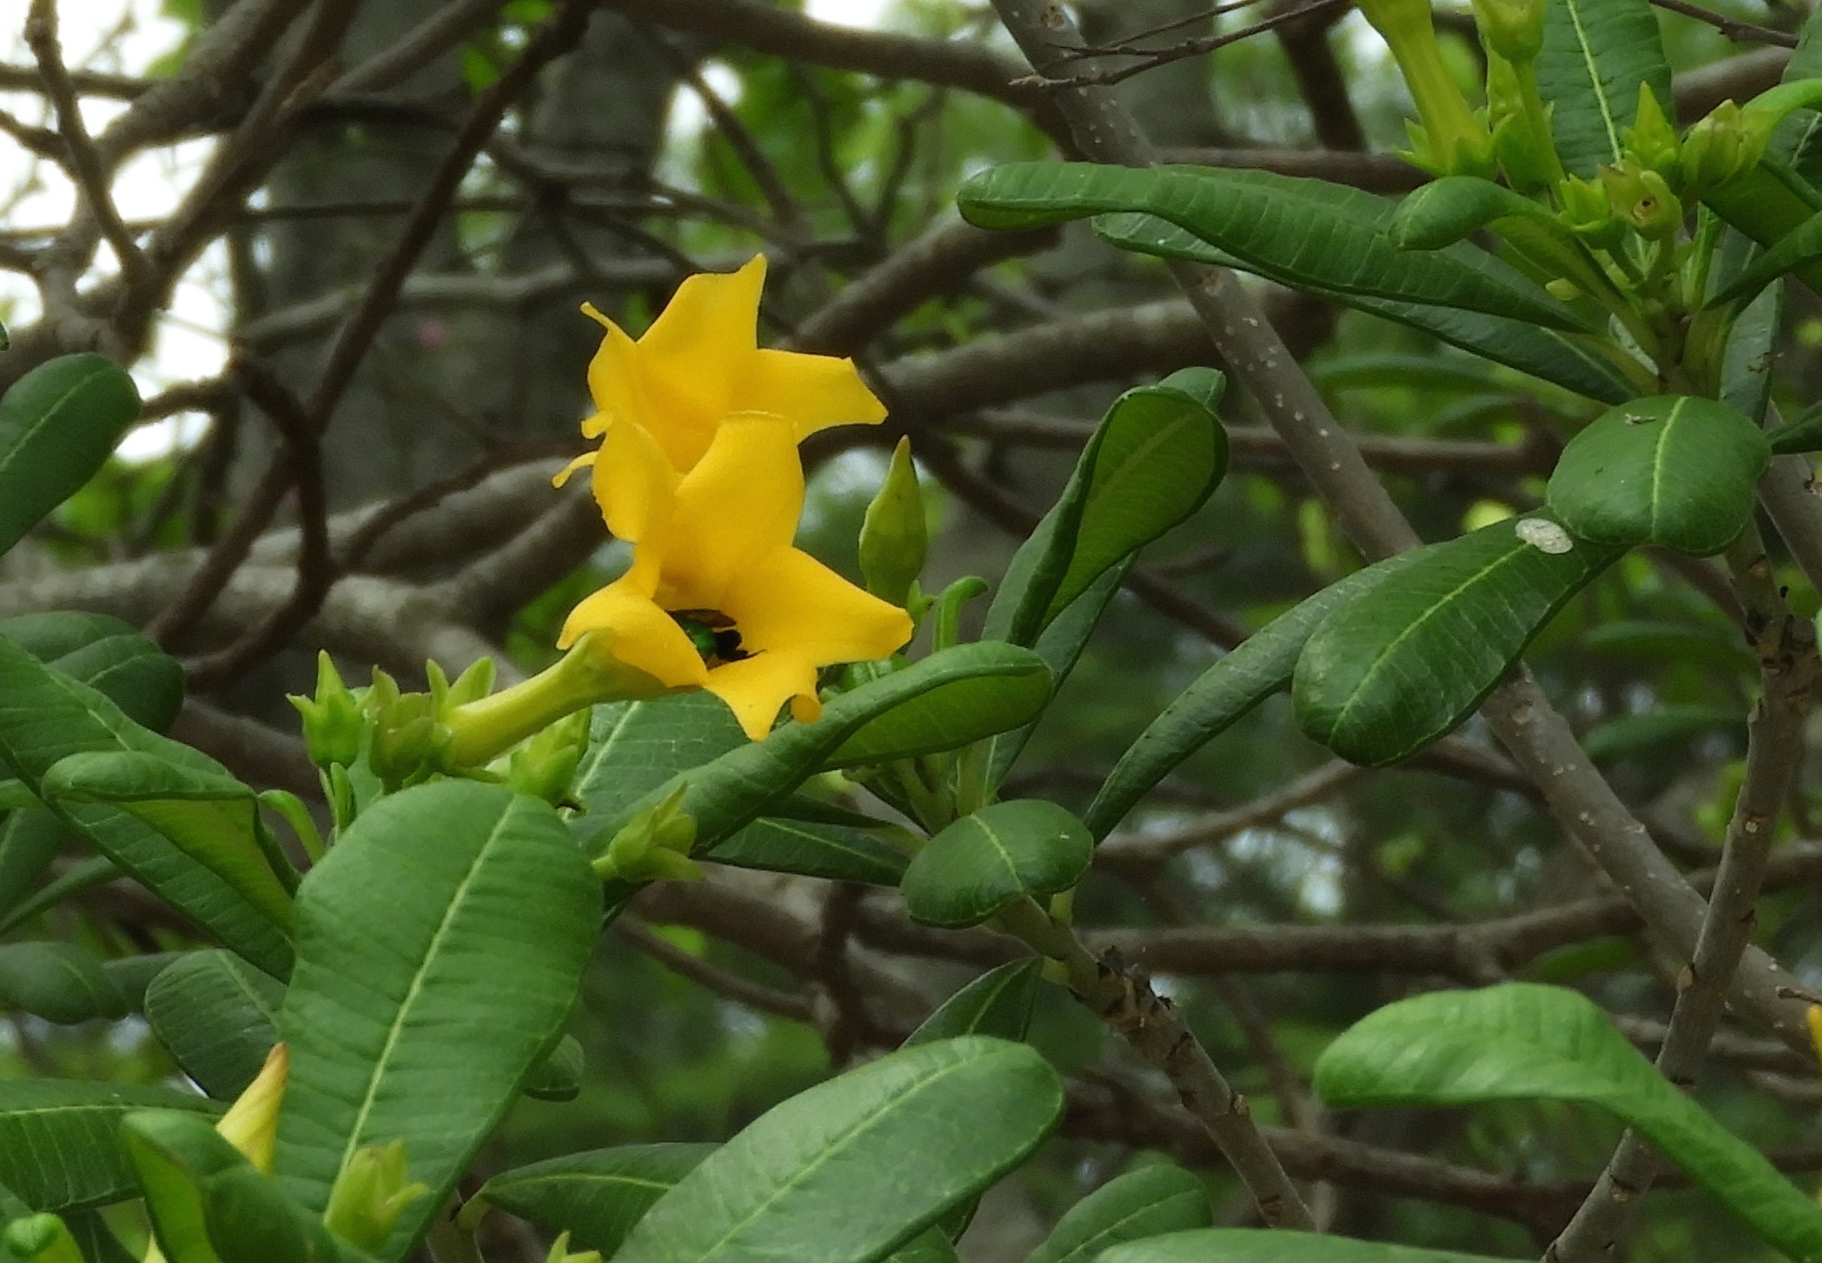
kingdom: Plantae
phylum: Tracheophyta
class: Magnoliopsida
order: Gentianales
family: Apocynaceae
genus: Cascabela
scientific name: Cascabela ovata
